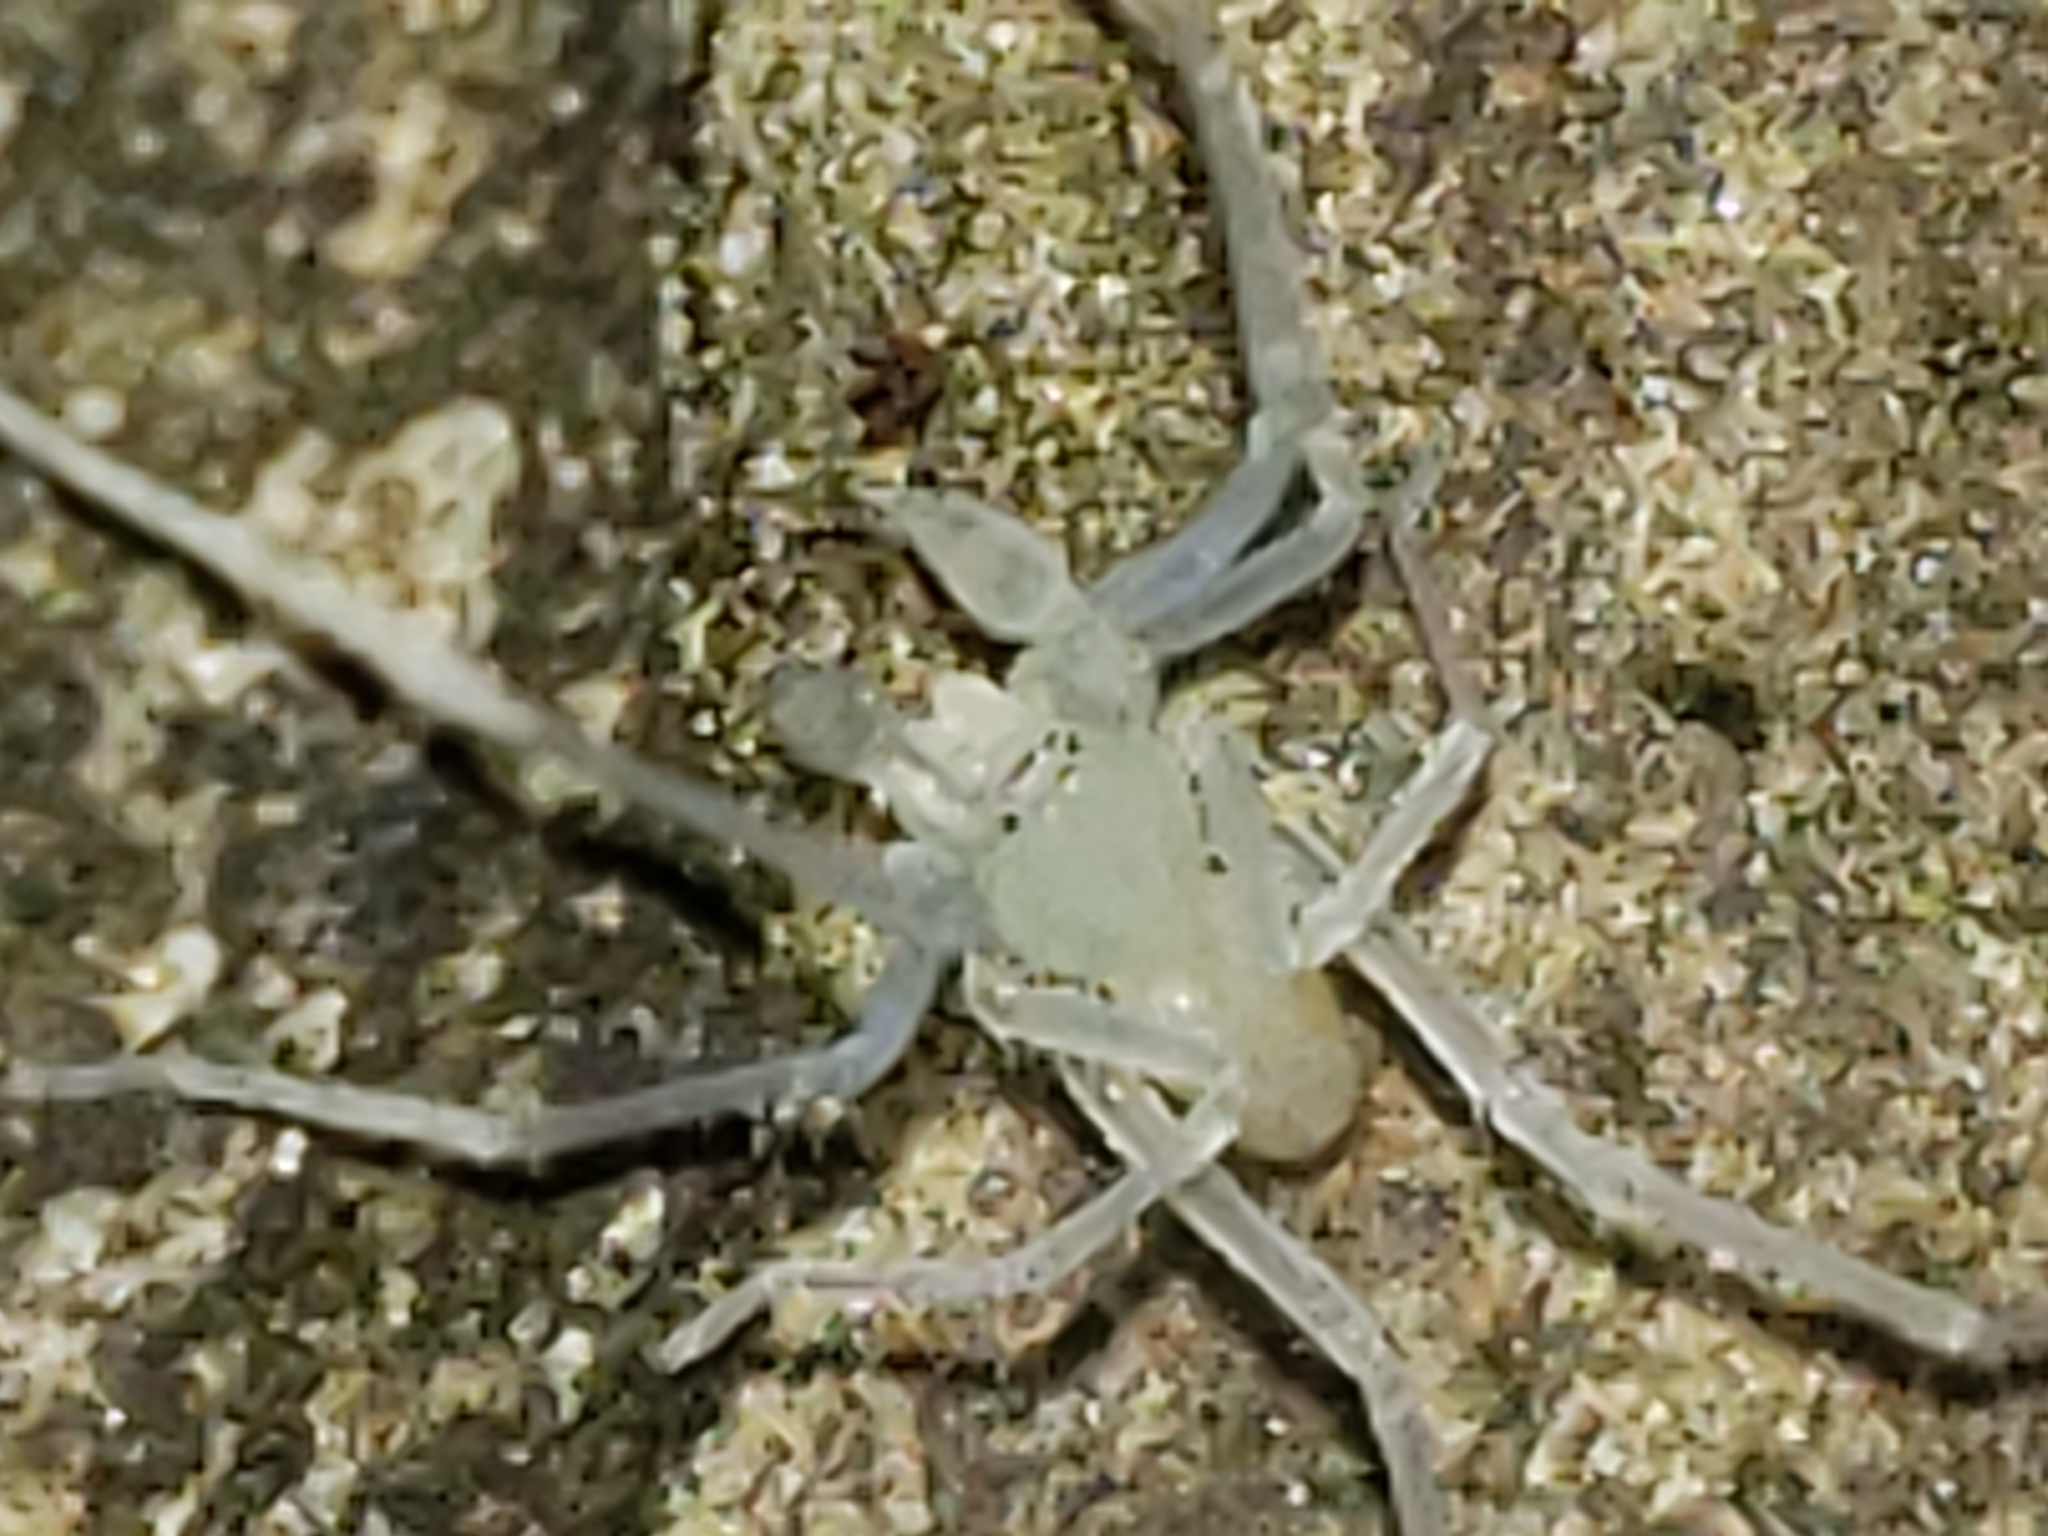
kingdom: Animalia
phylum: Arthropoda
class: Arachnida
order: Araneae
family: Anyphaenidae
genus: Wulfila
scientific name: Wulfila albens
